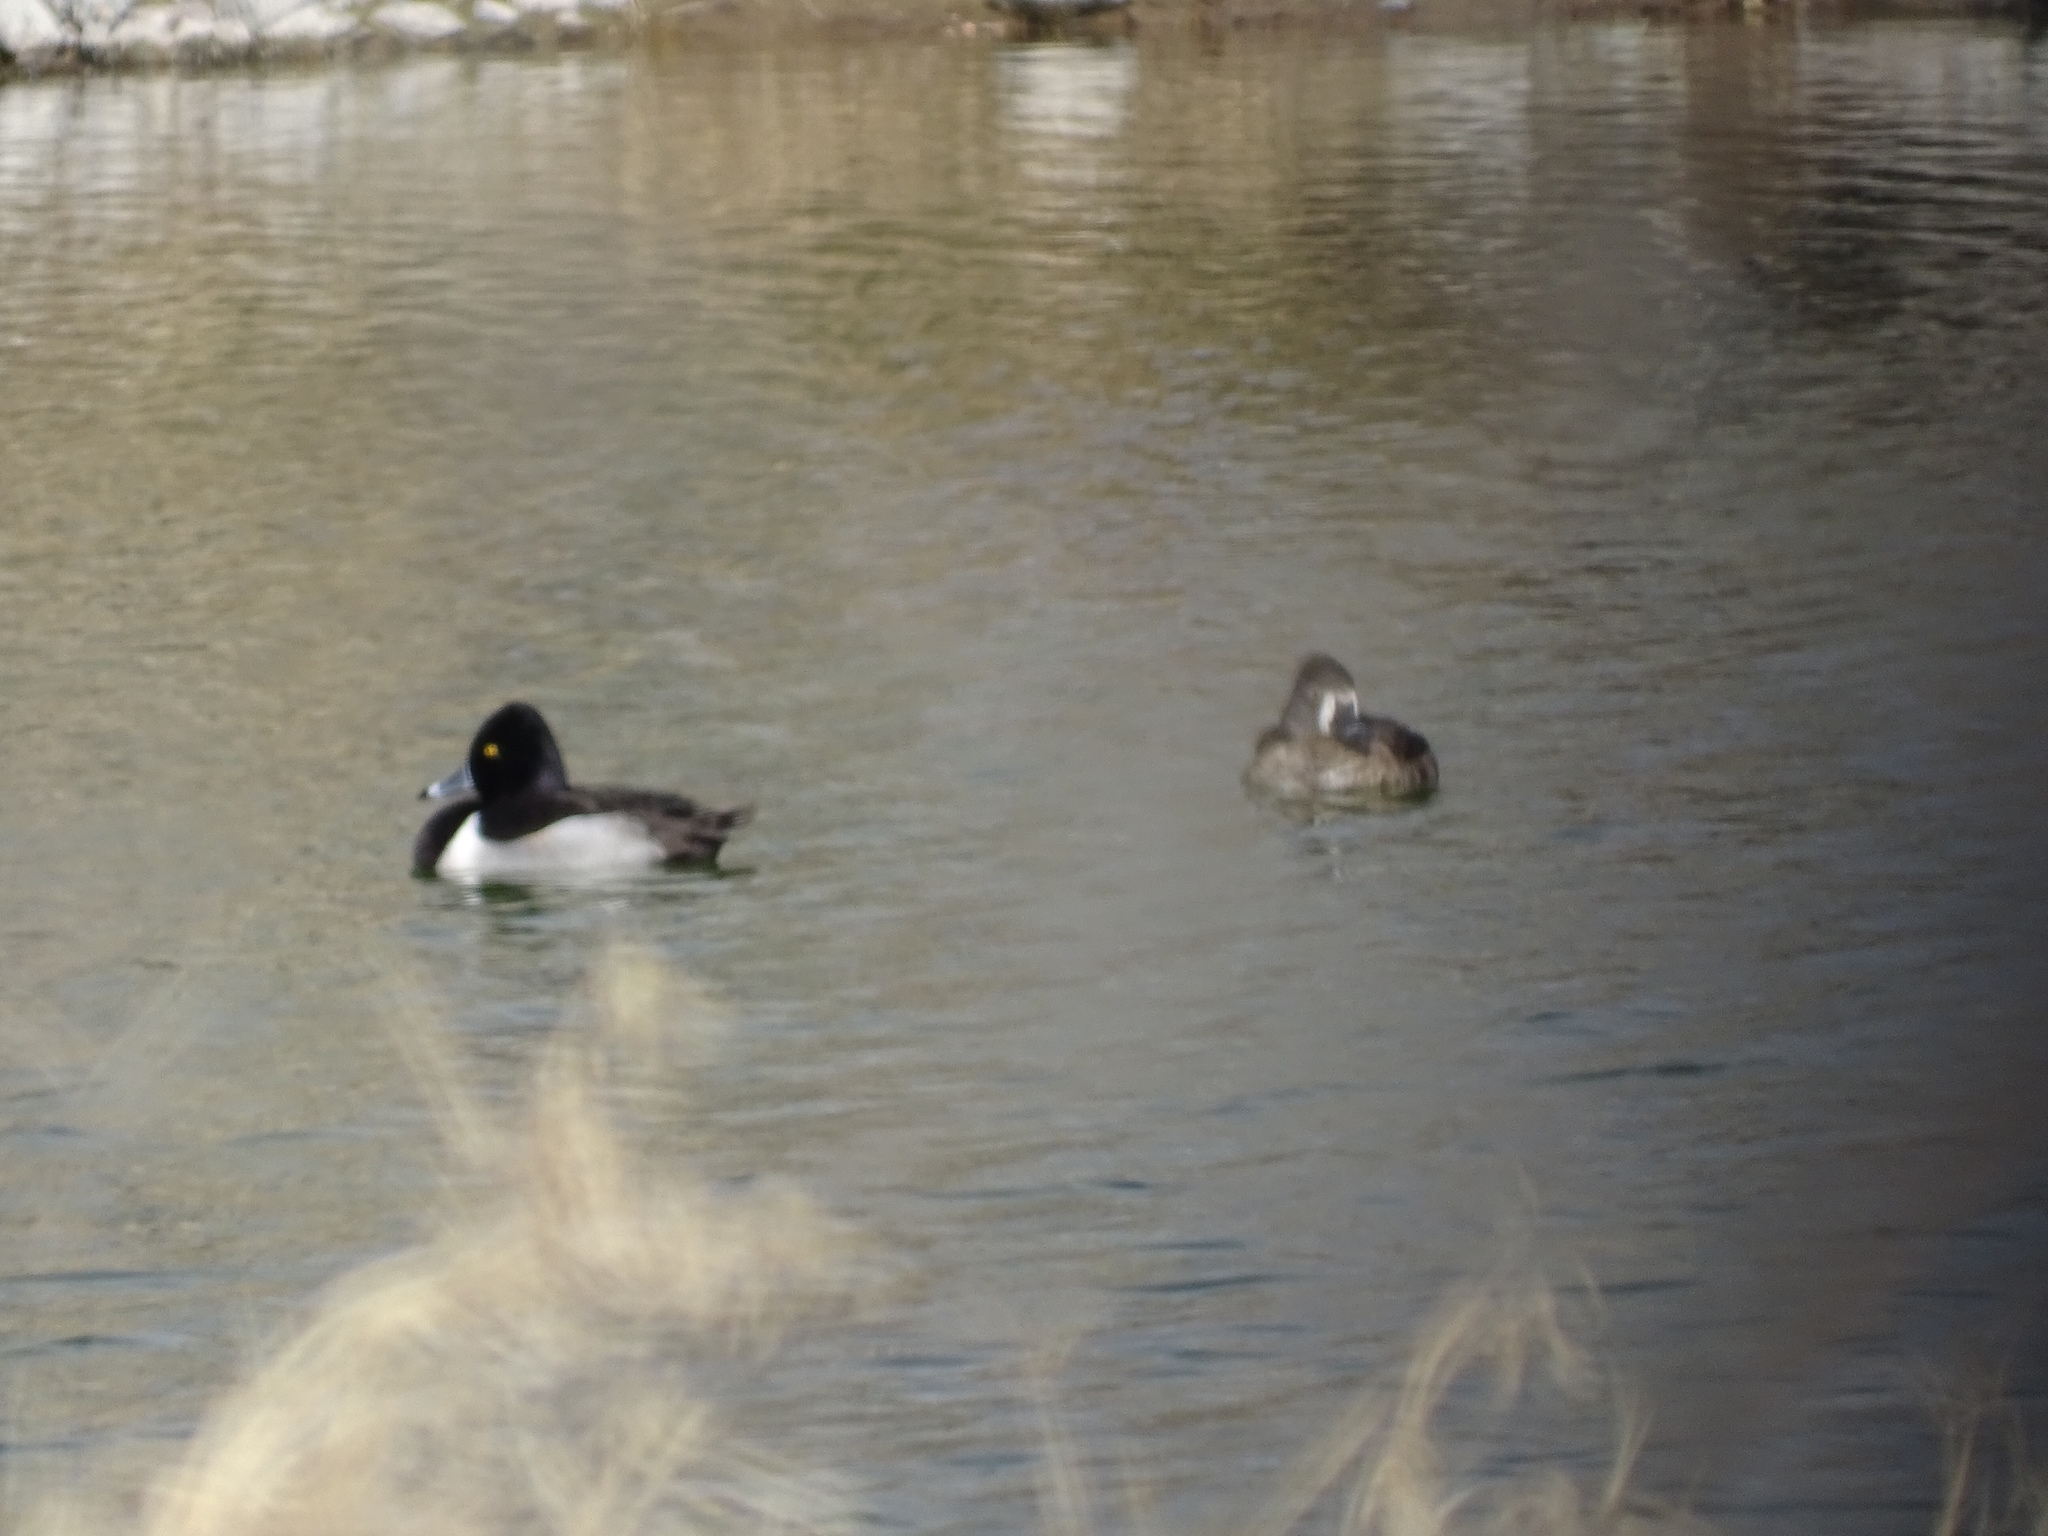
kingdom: Animalia
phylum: Chordata
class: Aves
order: Anseriformes
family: Anatidae
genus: Aythya
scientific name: Aythya collaris
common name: Ring-necked duck
